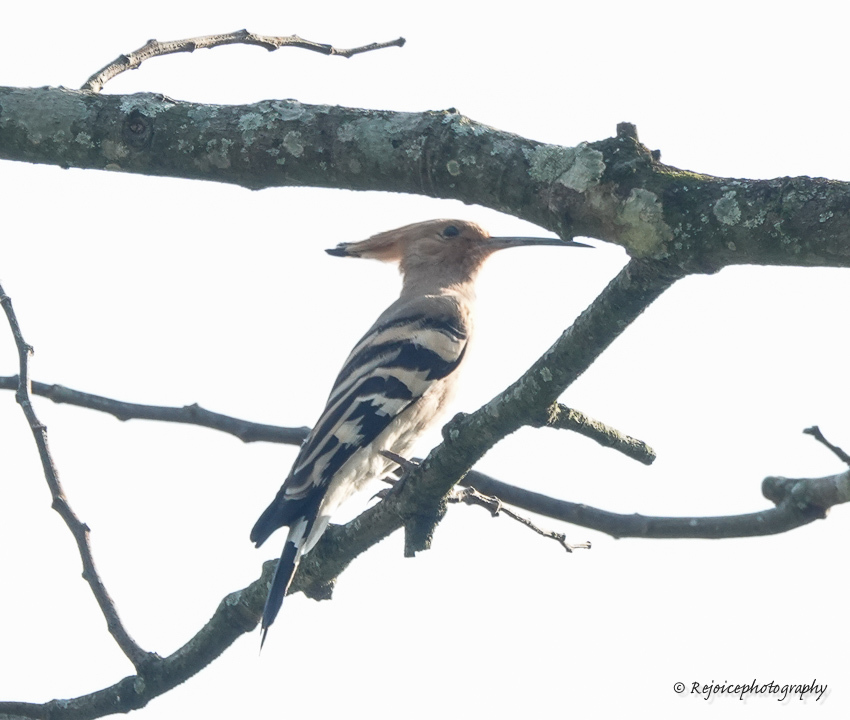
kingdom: Animalia
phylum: Chordata
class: Aves
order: Bucerotiformes
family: Upupidae
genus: Upupa
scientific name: Upupa epops
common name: Eurasian hoopoe
